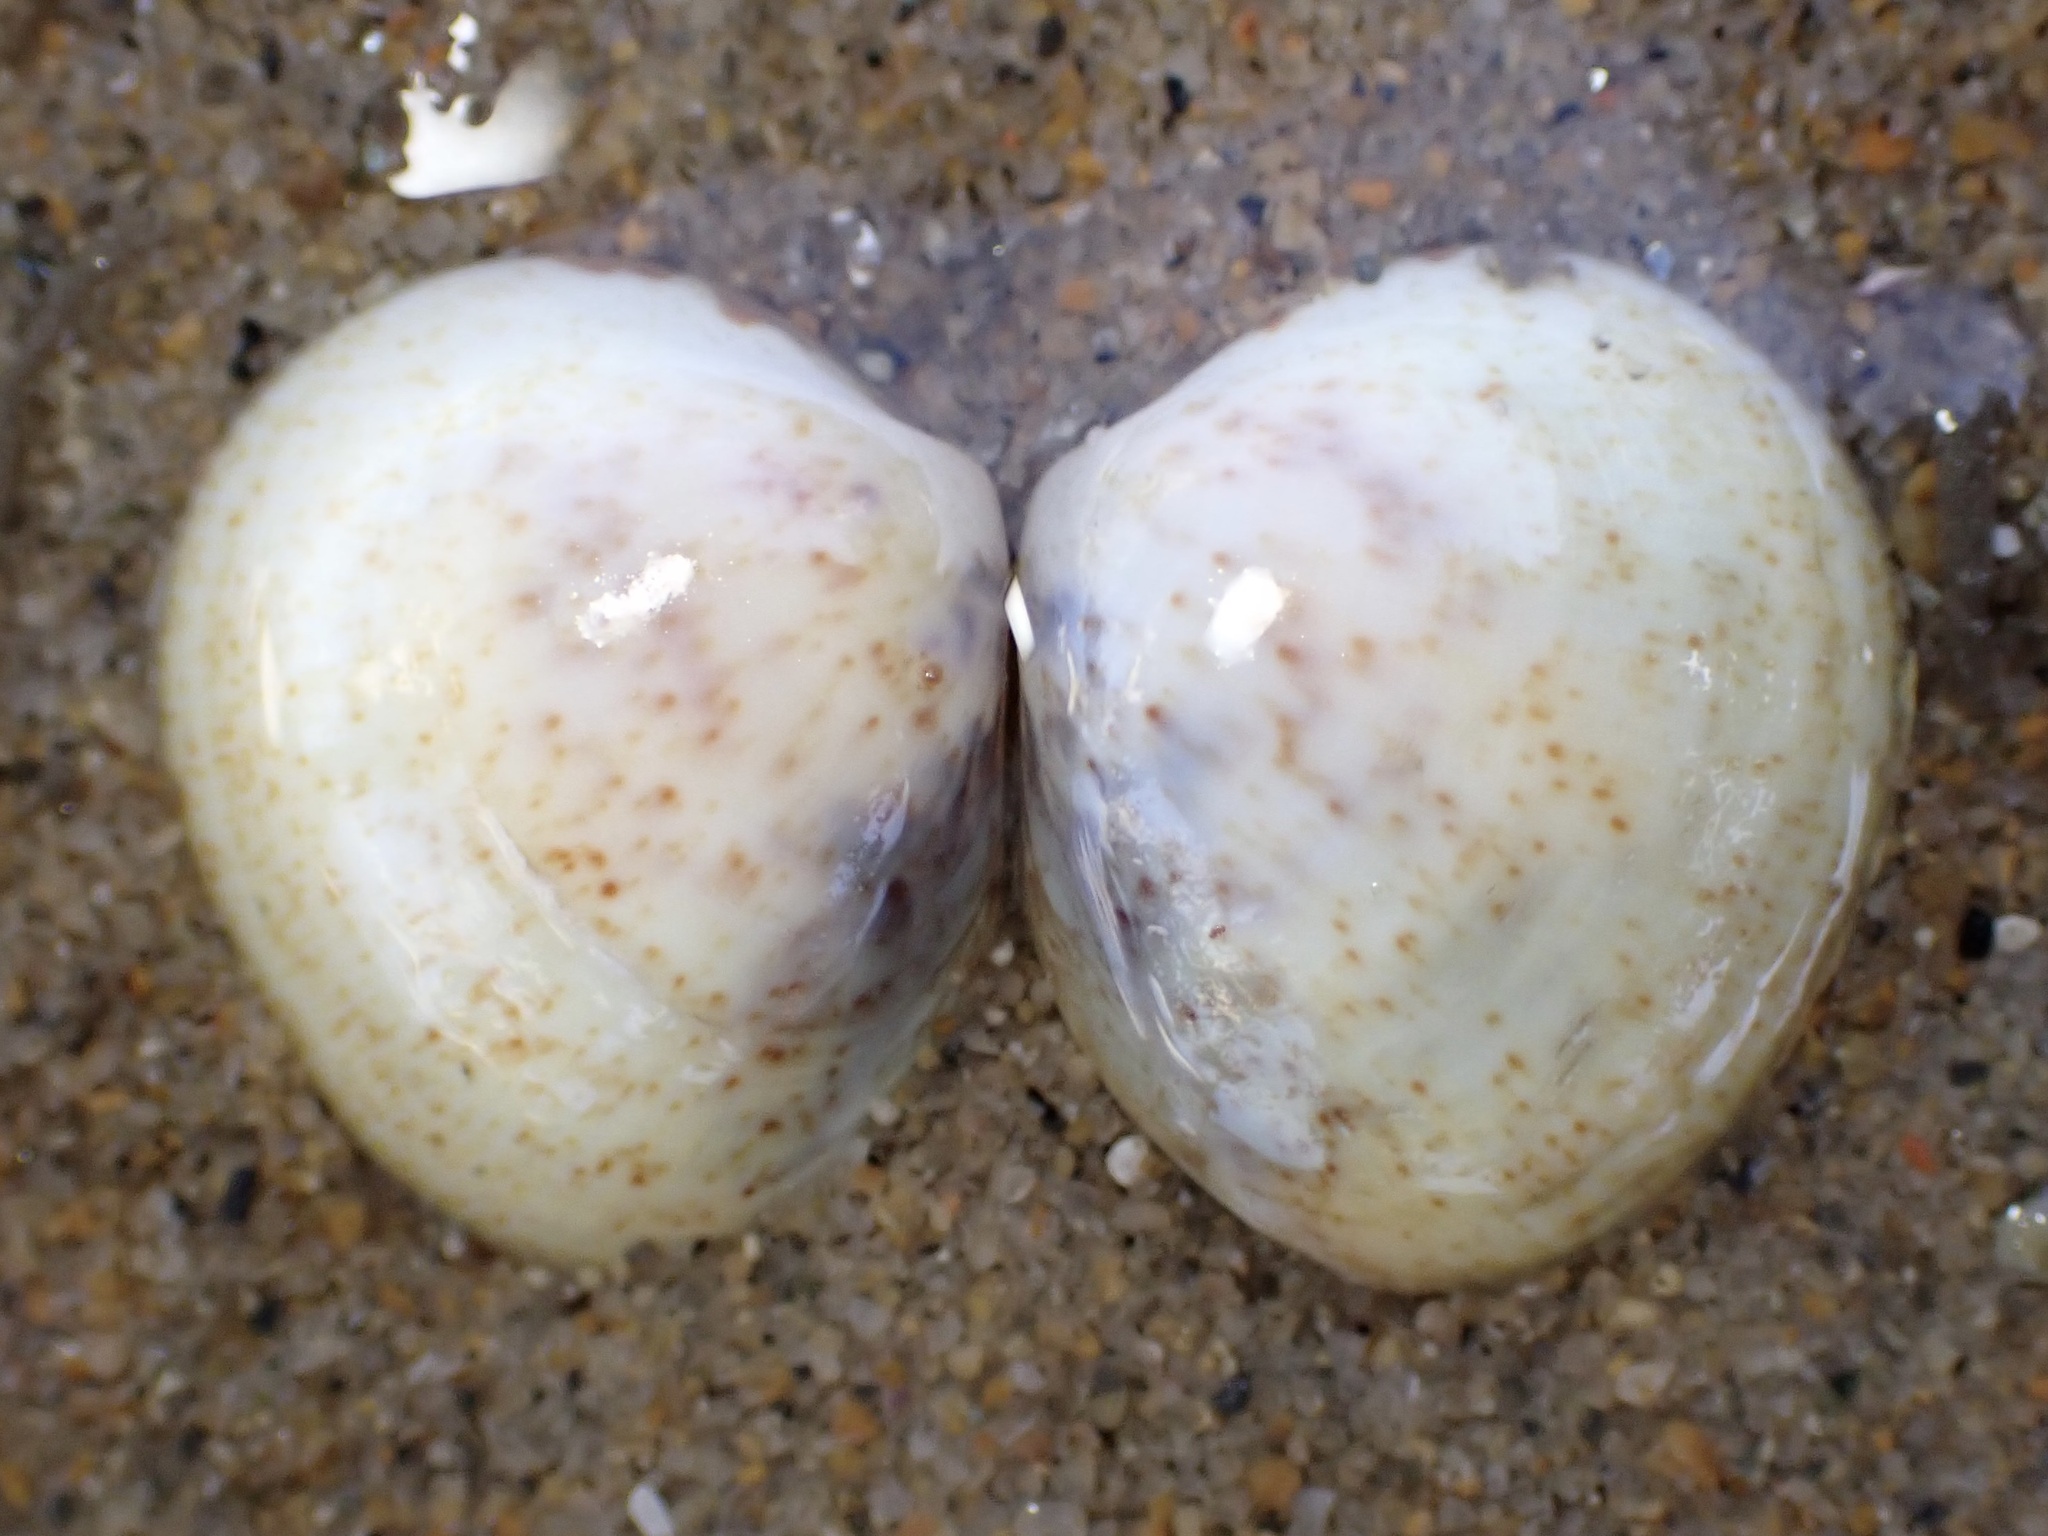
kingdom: Animalia
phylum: Mollusca
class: Bivalvia
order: Cardiida
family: Cardiidae
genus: Laevicardium
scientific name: Laevicardium substriatum
